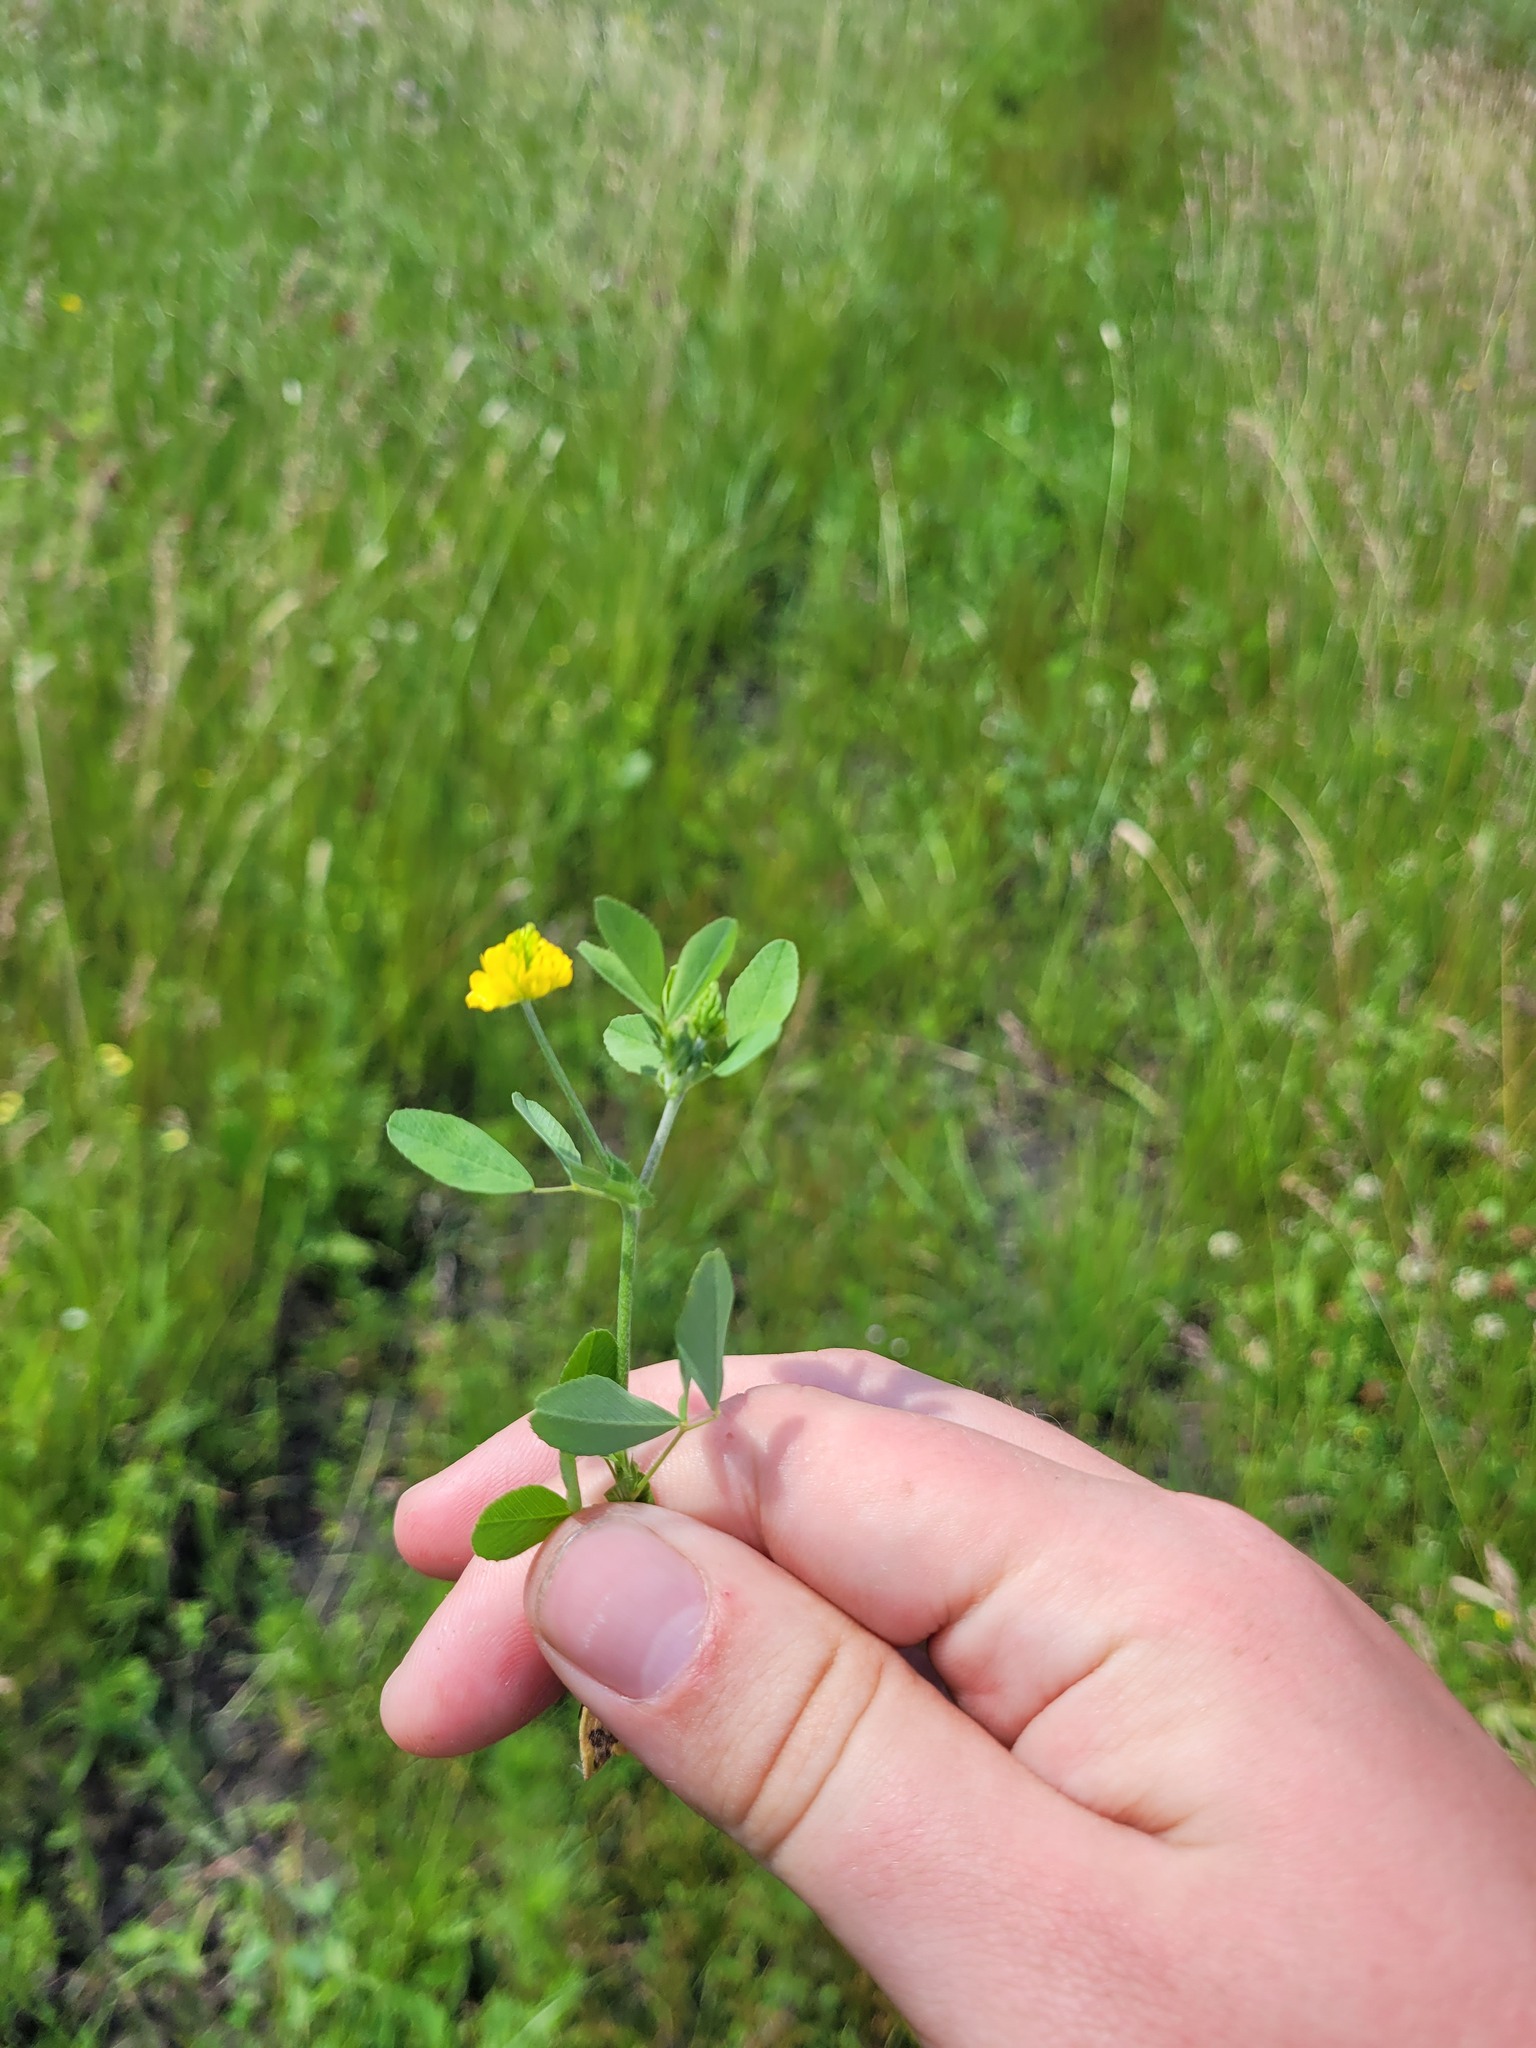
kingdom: Plantae
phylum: Tracheophyta
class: Magnoliopsida
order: Fabales
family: Fabaceae
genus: Trifolium
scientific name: Trifolium campestre
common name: Field clover
